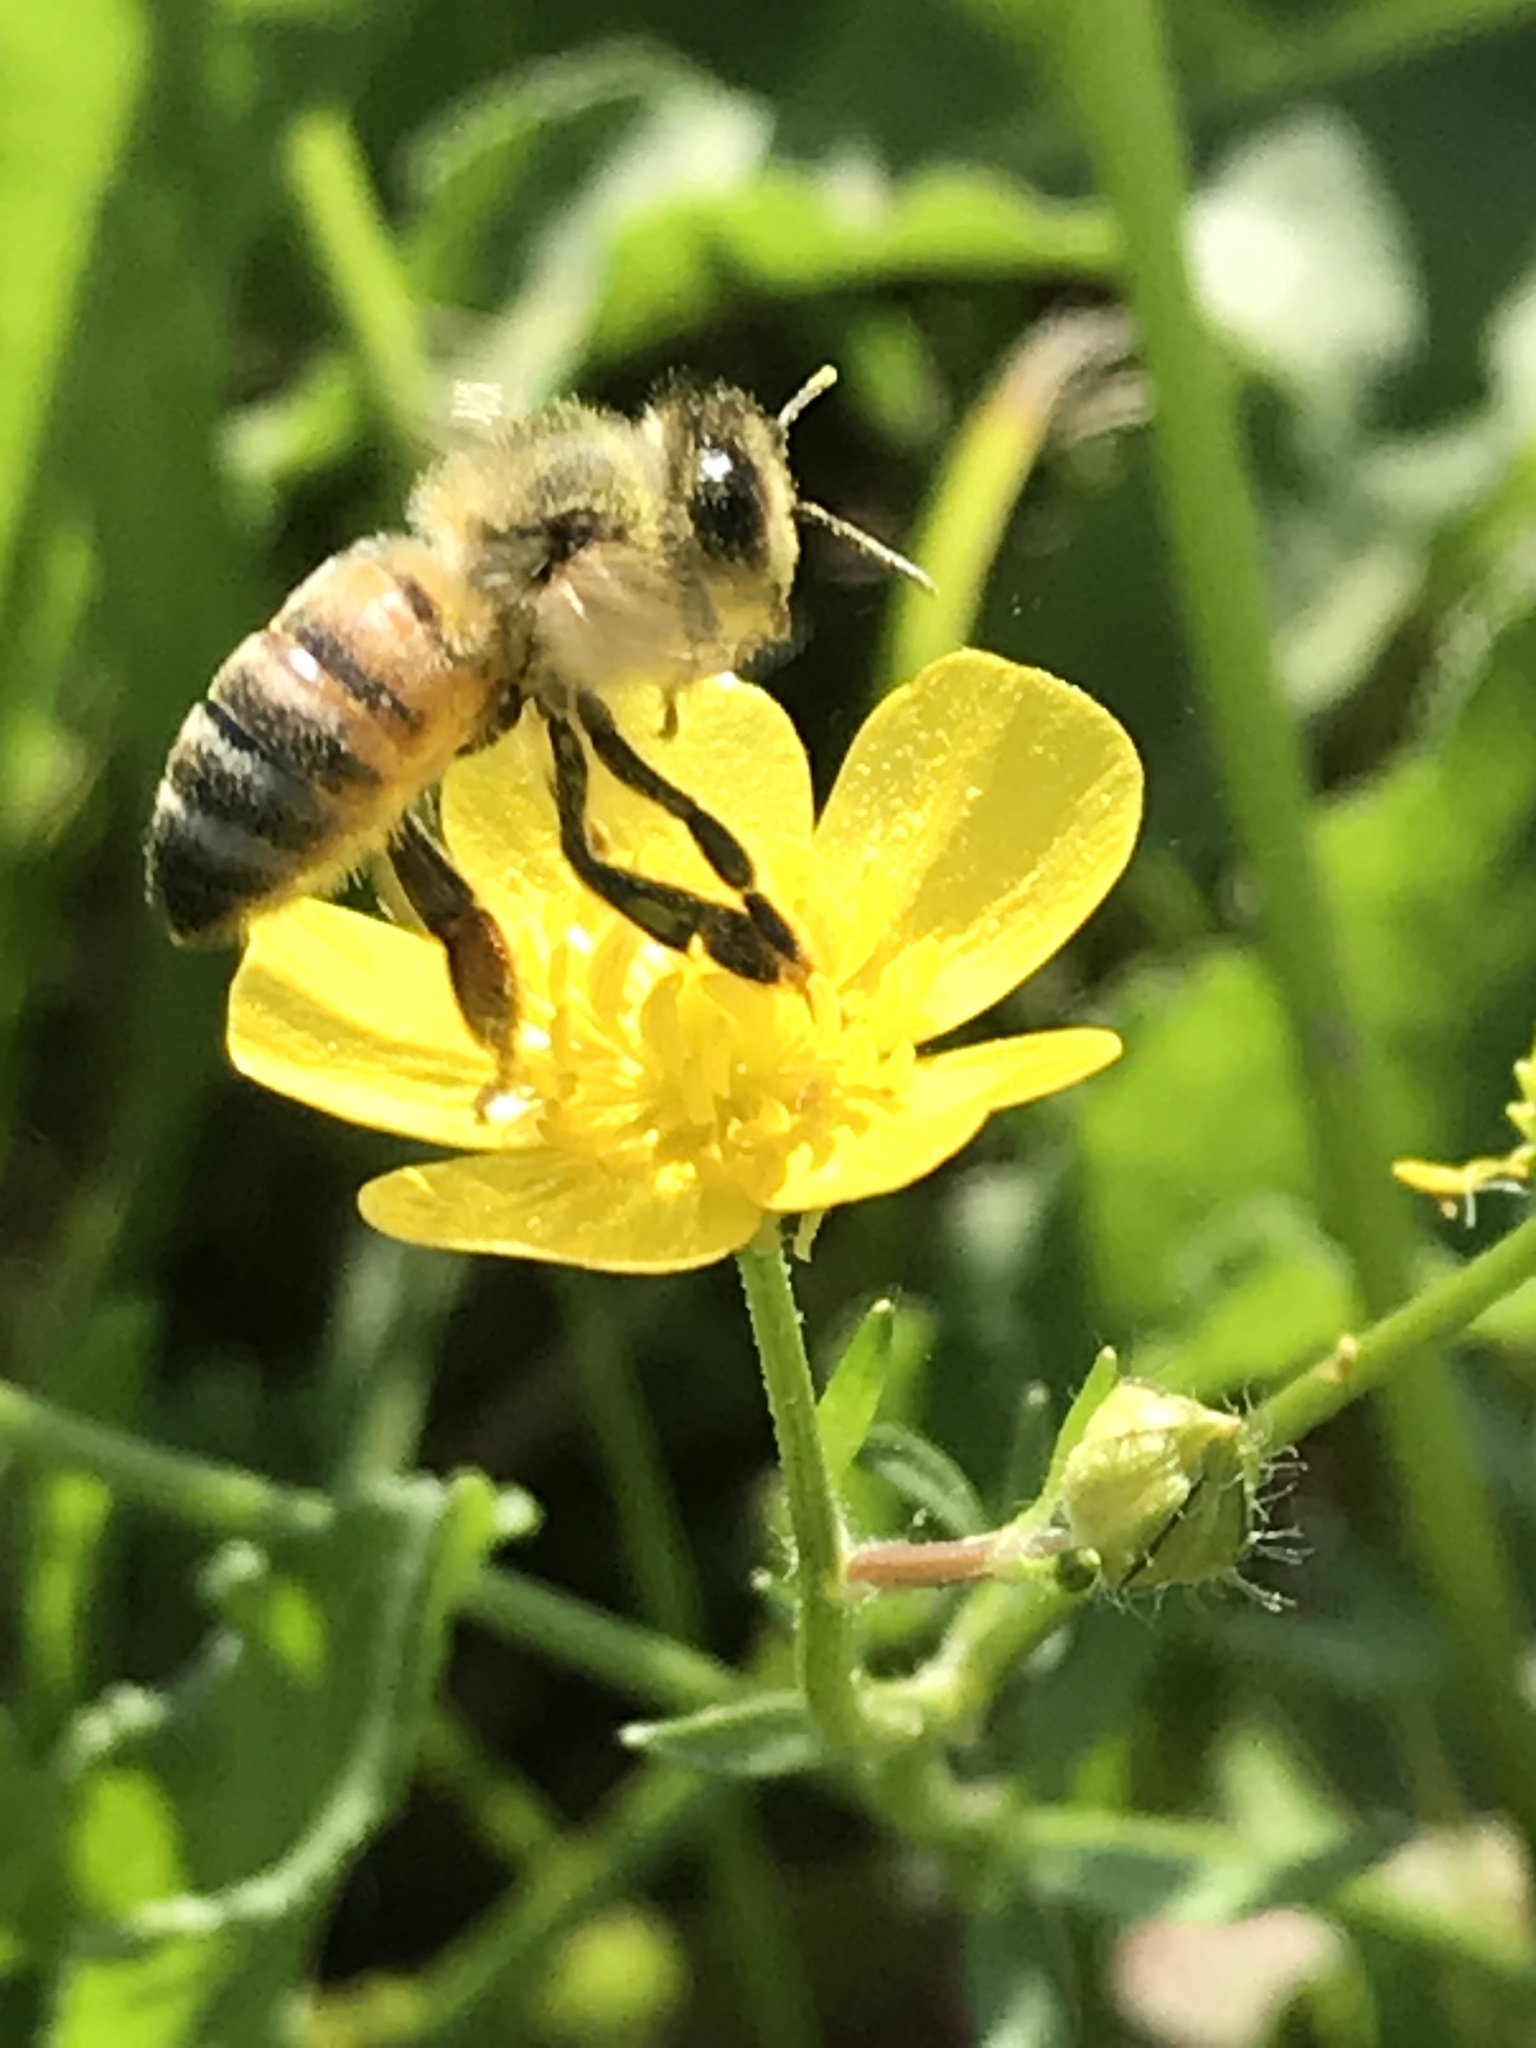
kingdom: Animalia
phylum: Arthropoda
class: Insecta
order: Hymenoptera
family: Apidae
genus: Apis
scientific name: Apis mellifera
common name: Honey bee
